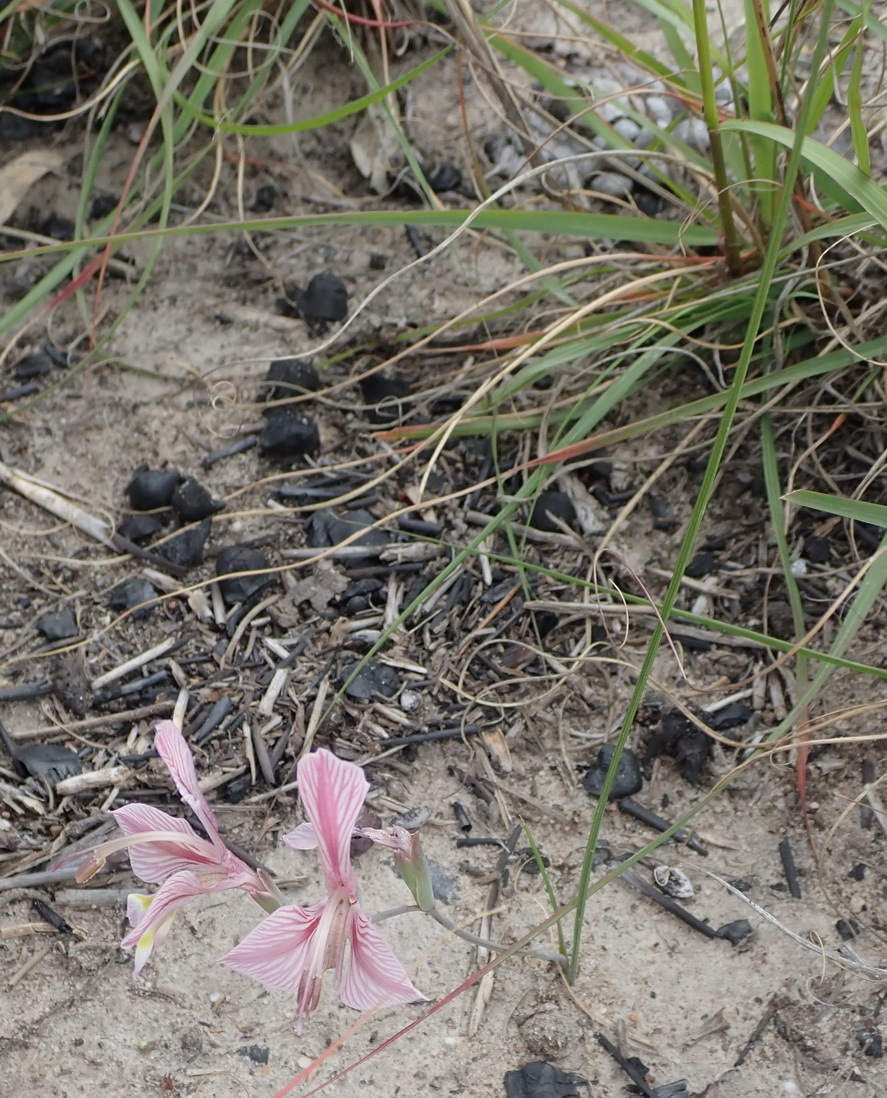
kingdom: Plantae
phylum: Tracheophyta
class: Liliopsida
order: Asparagales
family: Iridaceae
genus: Gladiolus
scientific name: Gladiolus virescens
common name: Yellow kalkoentjie
